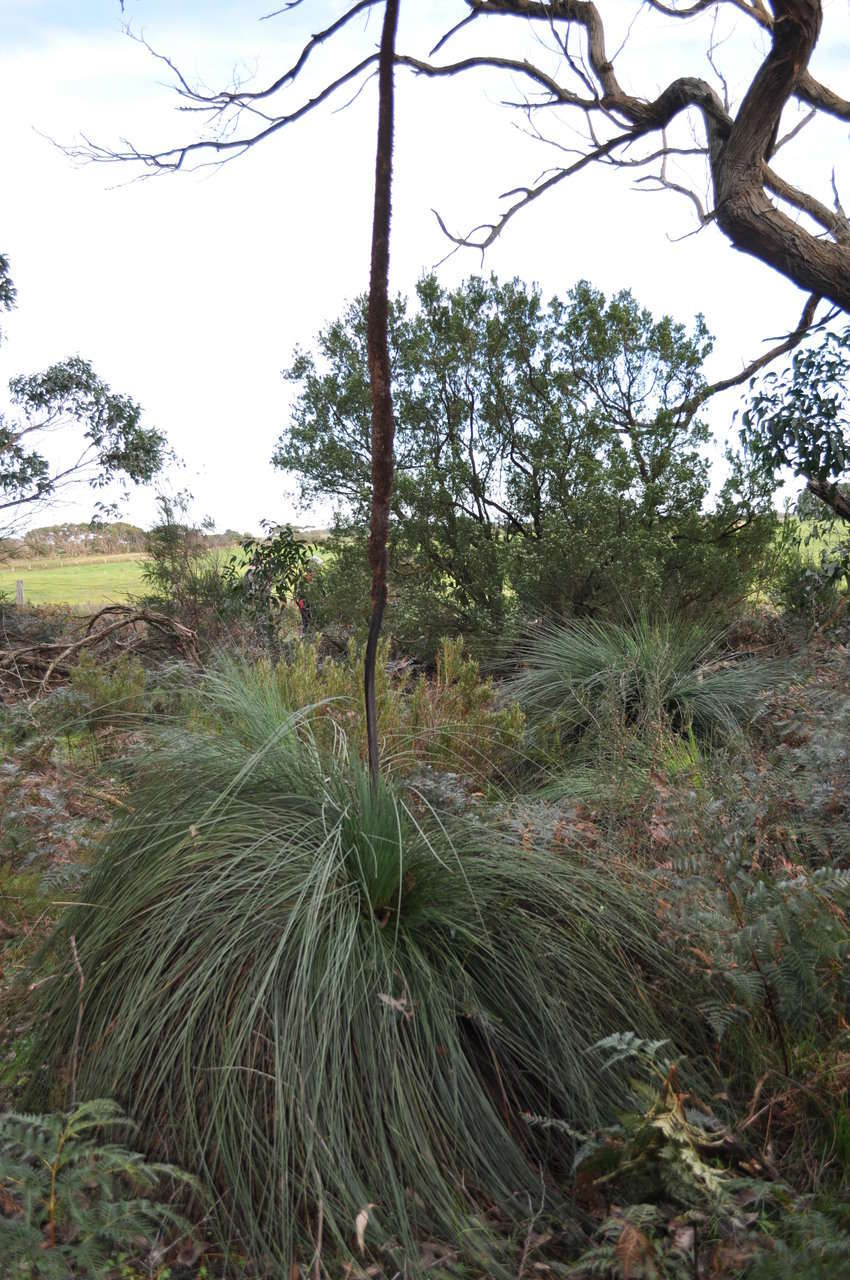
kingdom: Plantae
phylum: Tracheophyta
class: Liliopsida
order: Asparagales
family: Asphodelaceae
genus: Xanthorrhoea
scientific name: Xanthorrhoea australis
